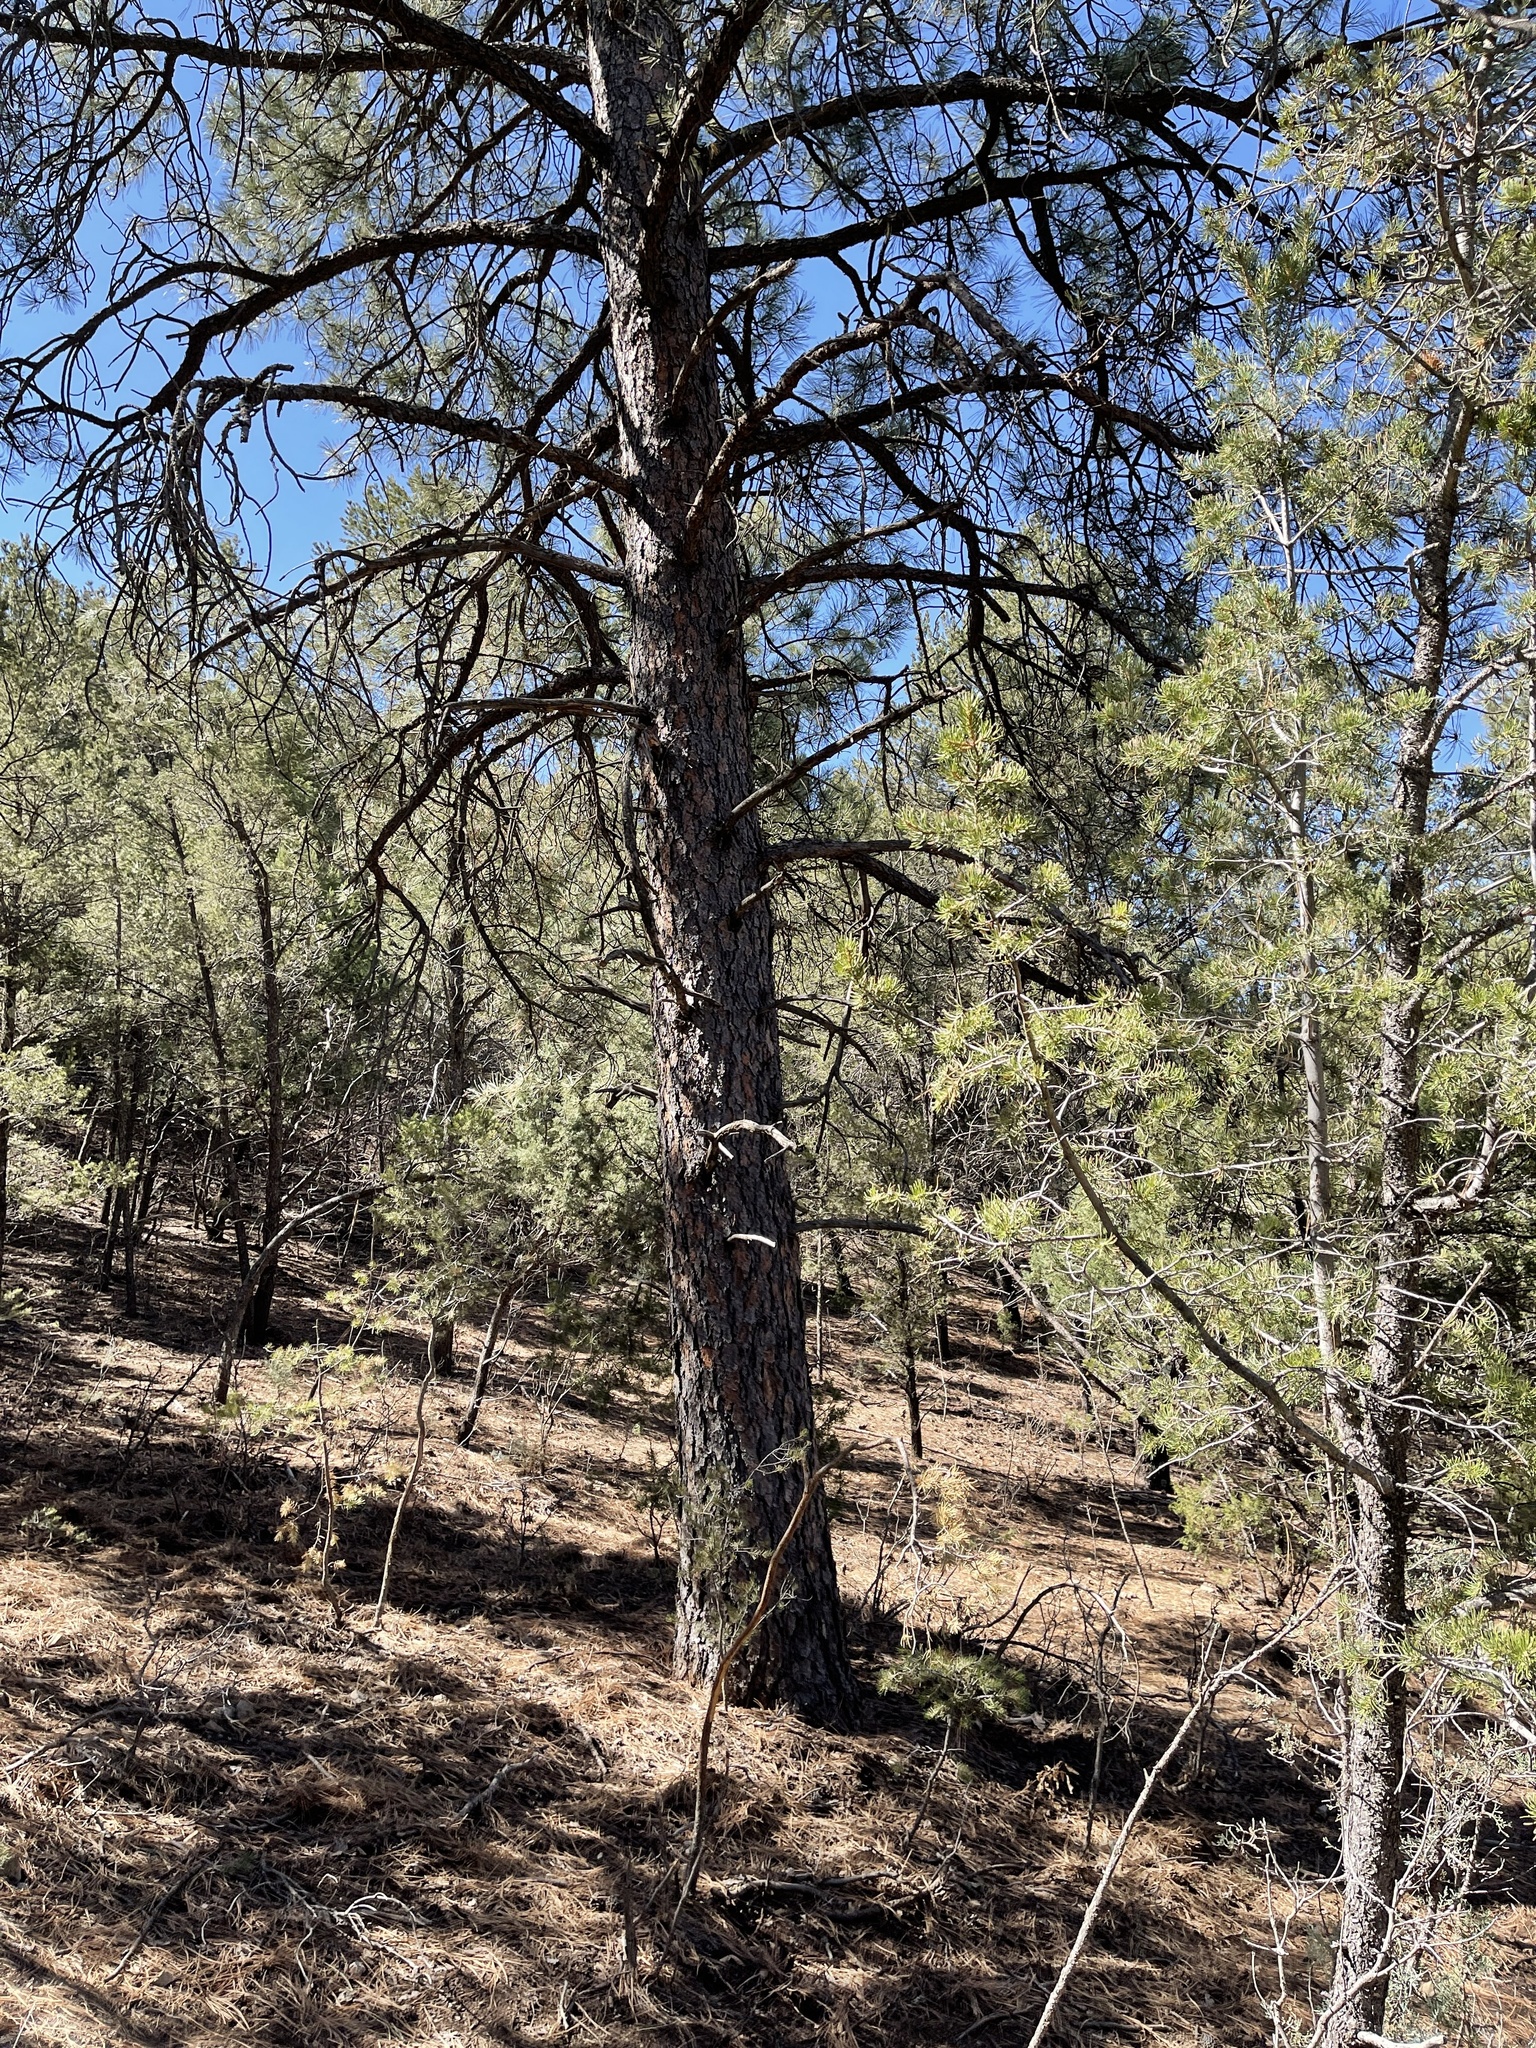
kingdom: Plantae
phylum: Tracheophyta
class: Pinopsida
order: Pinales
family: Pinaceae
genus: Pinus
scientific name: Pinus ponderosa
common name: Western yellow-pine
